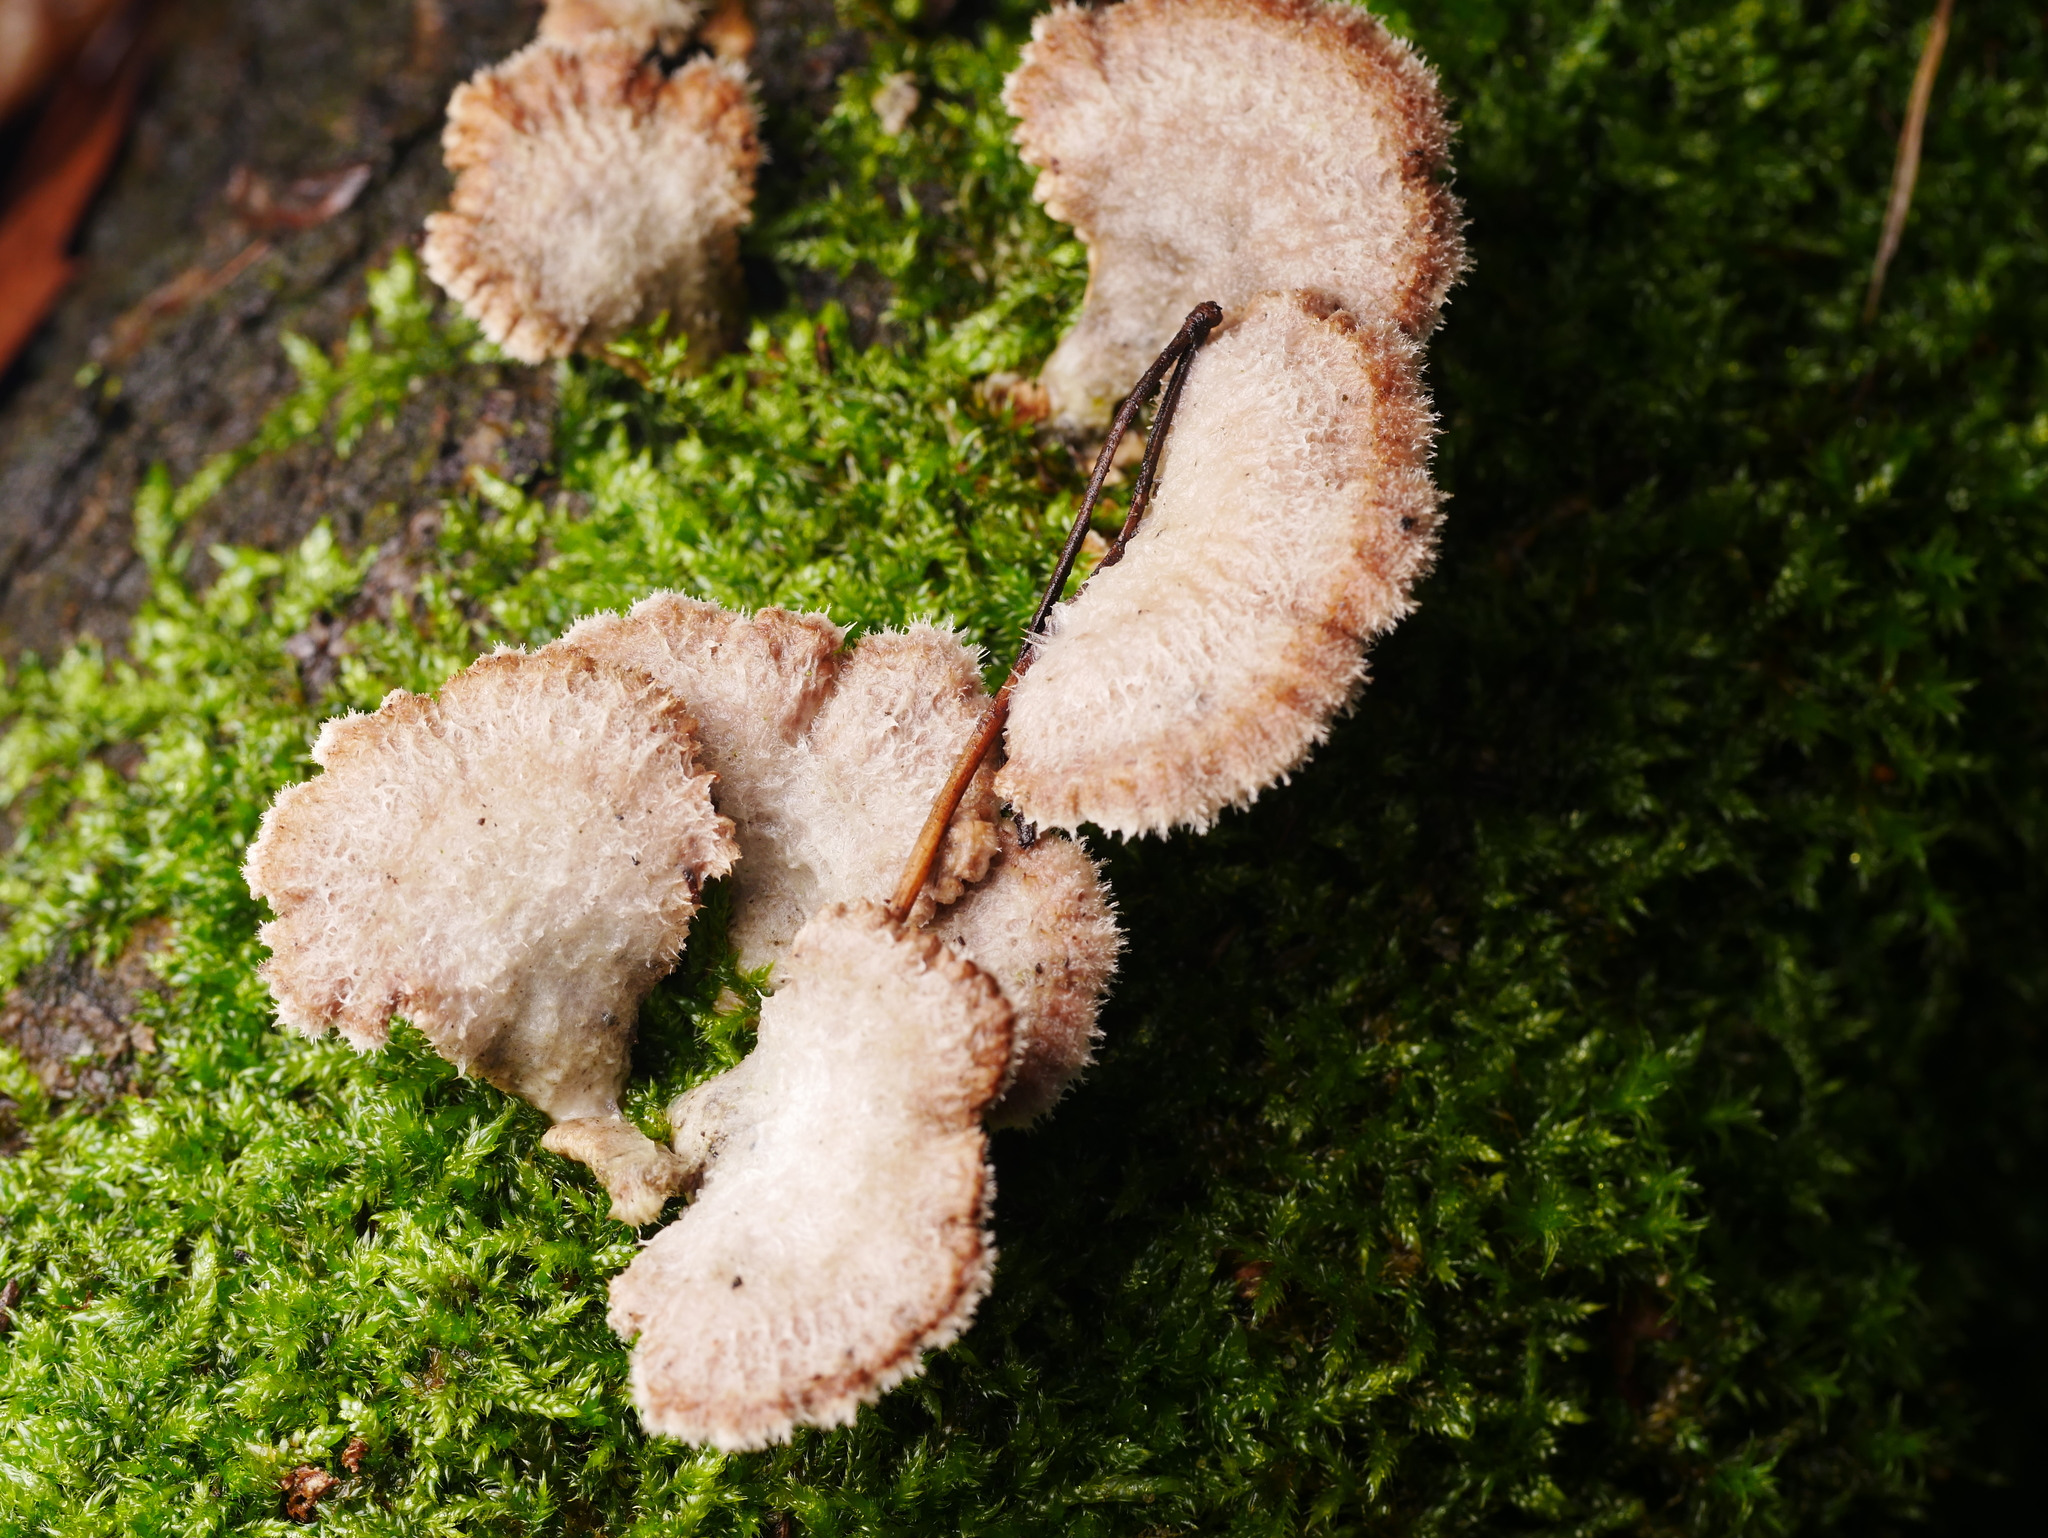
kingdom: Fungi
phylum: Basidiomycota
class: Agaricomycetes
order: Agaricales
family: Schizophyllaceae
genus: Schizophyllum
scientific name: Schizophyllum commune
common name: Common porecrust
